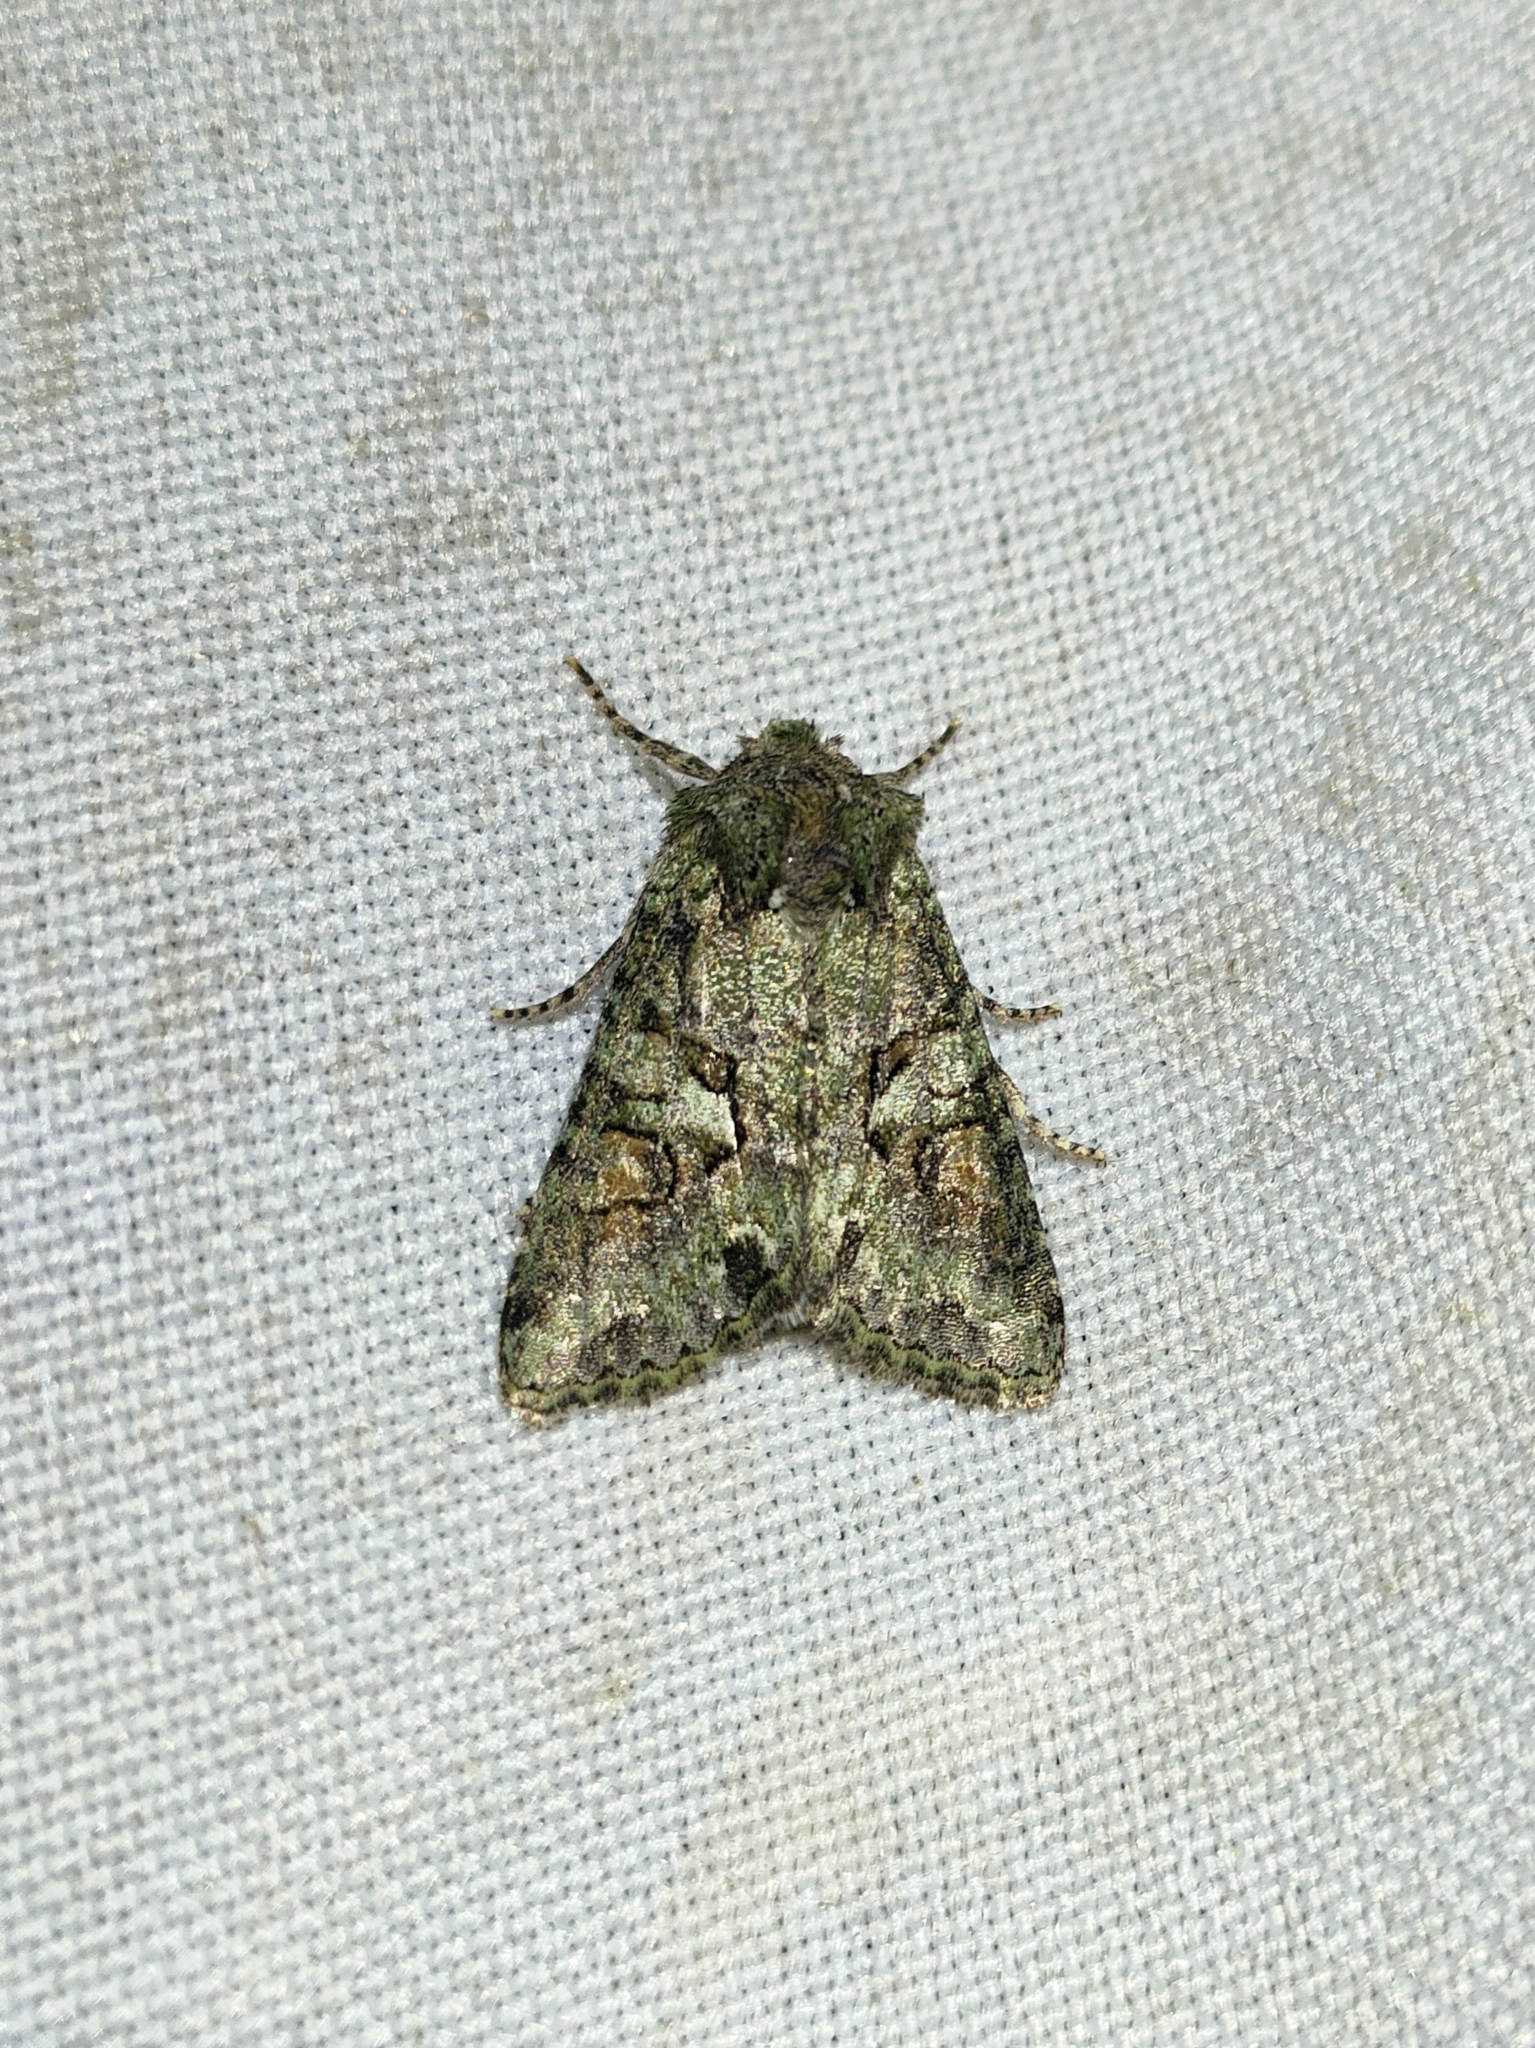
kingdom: Animalia
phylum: Arthropoda
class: Insecta
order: Lepidoptera
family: Noctuidae
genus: Dryobotodes
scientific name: Dryobotodes roboris
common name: Southern brindled green
